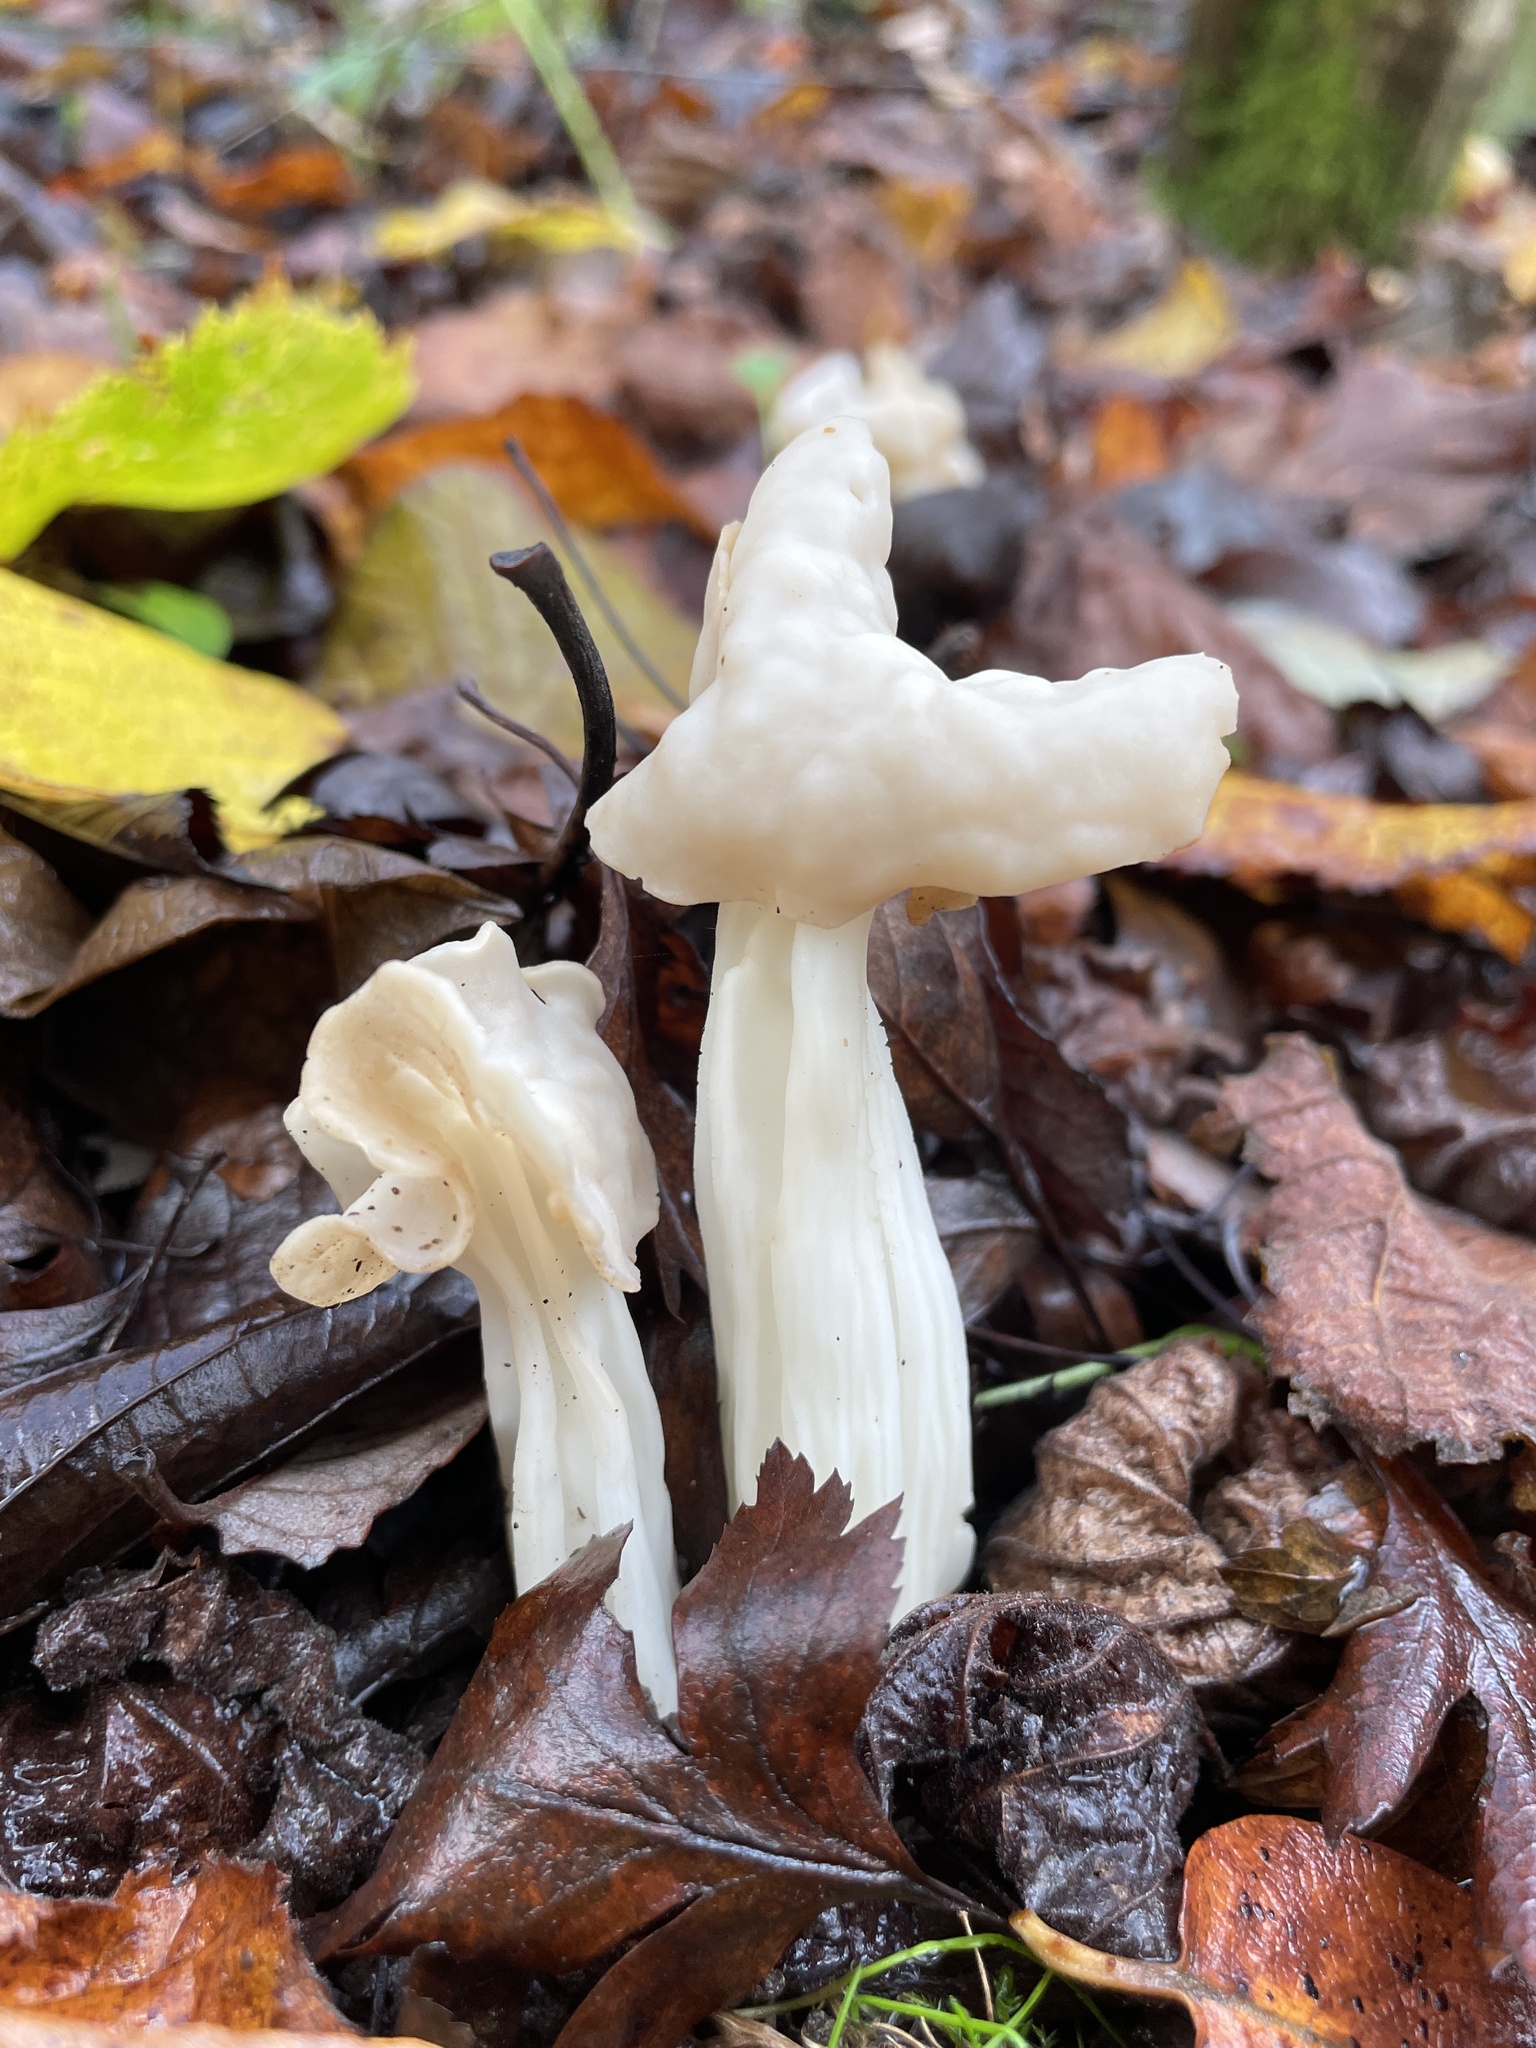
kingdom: Fungi
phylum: Ascomycota
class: Pezizomycetes
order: Pezizales
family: Helvellaceae
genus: Helvella
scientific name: Helvella crispa
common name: White saddle
